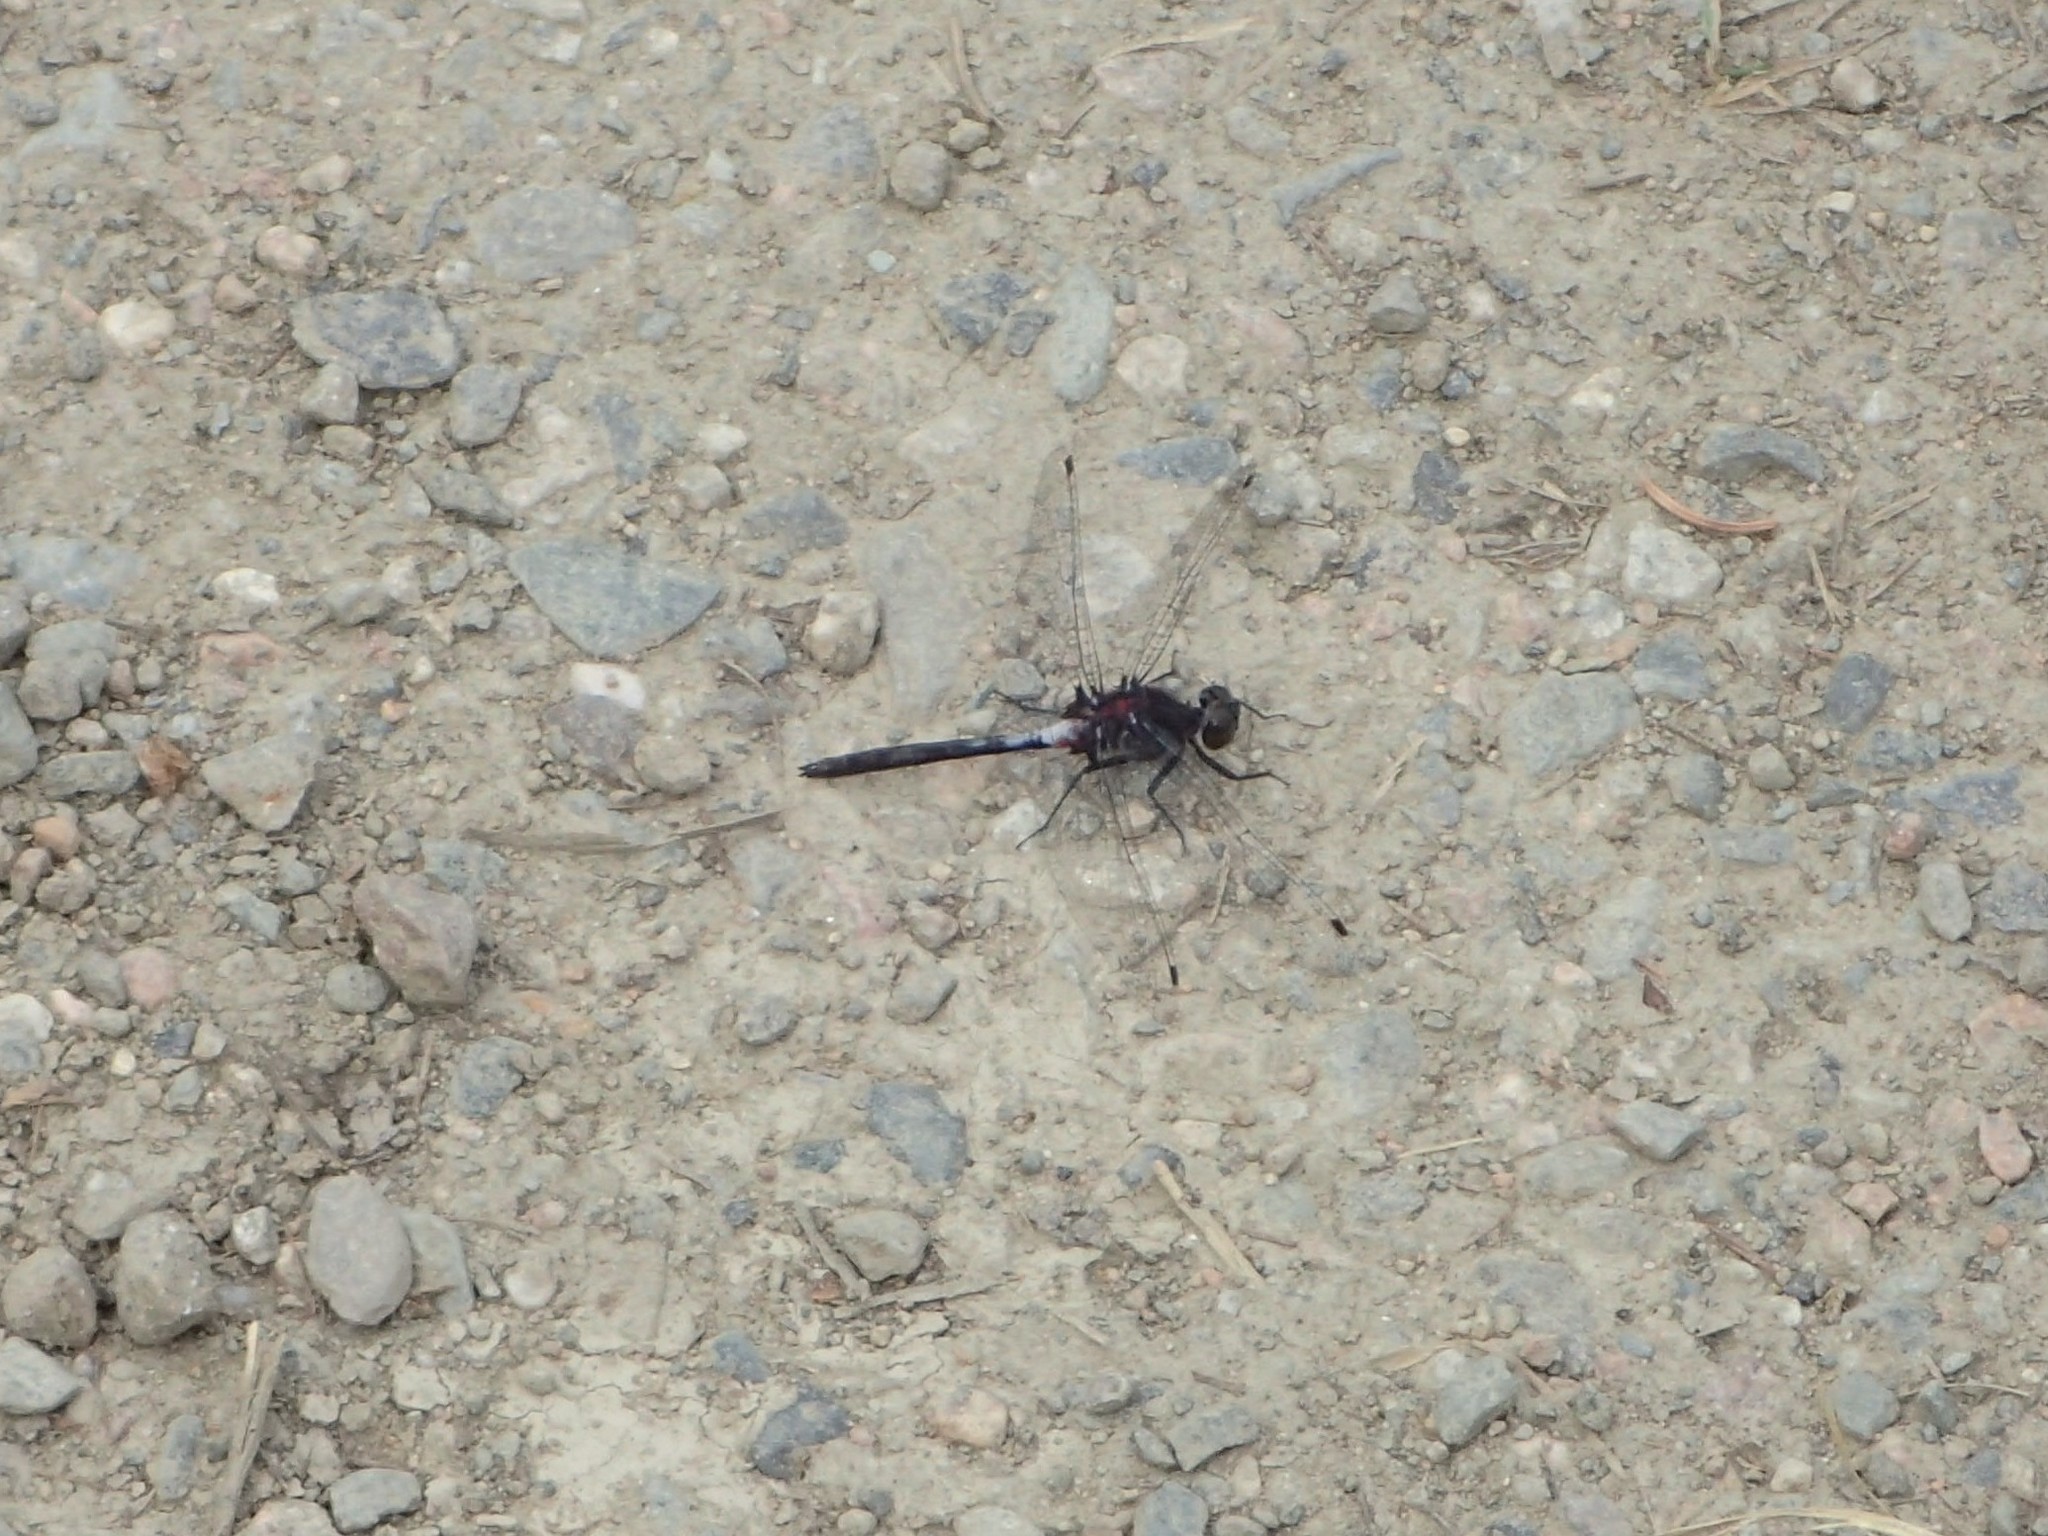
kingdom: Animalia
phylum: Arthropoda
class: Insecta
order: Odonata
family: Libellulidae
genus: Leucorrhinia
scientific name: Leucorrhinia proxima
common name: Belted whiteface
